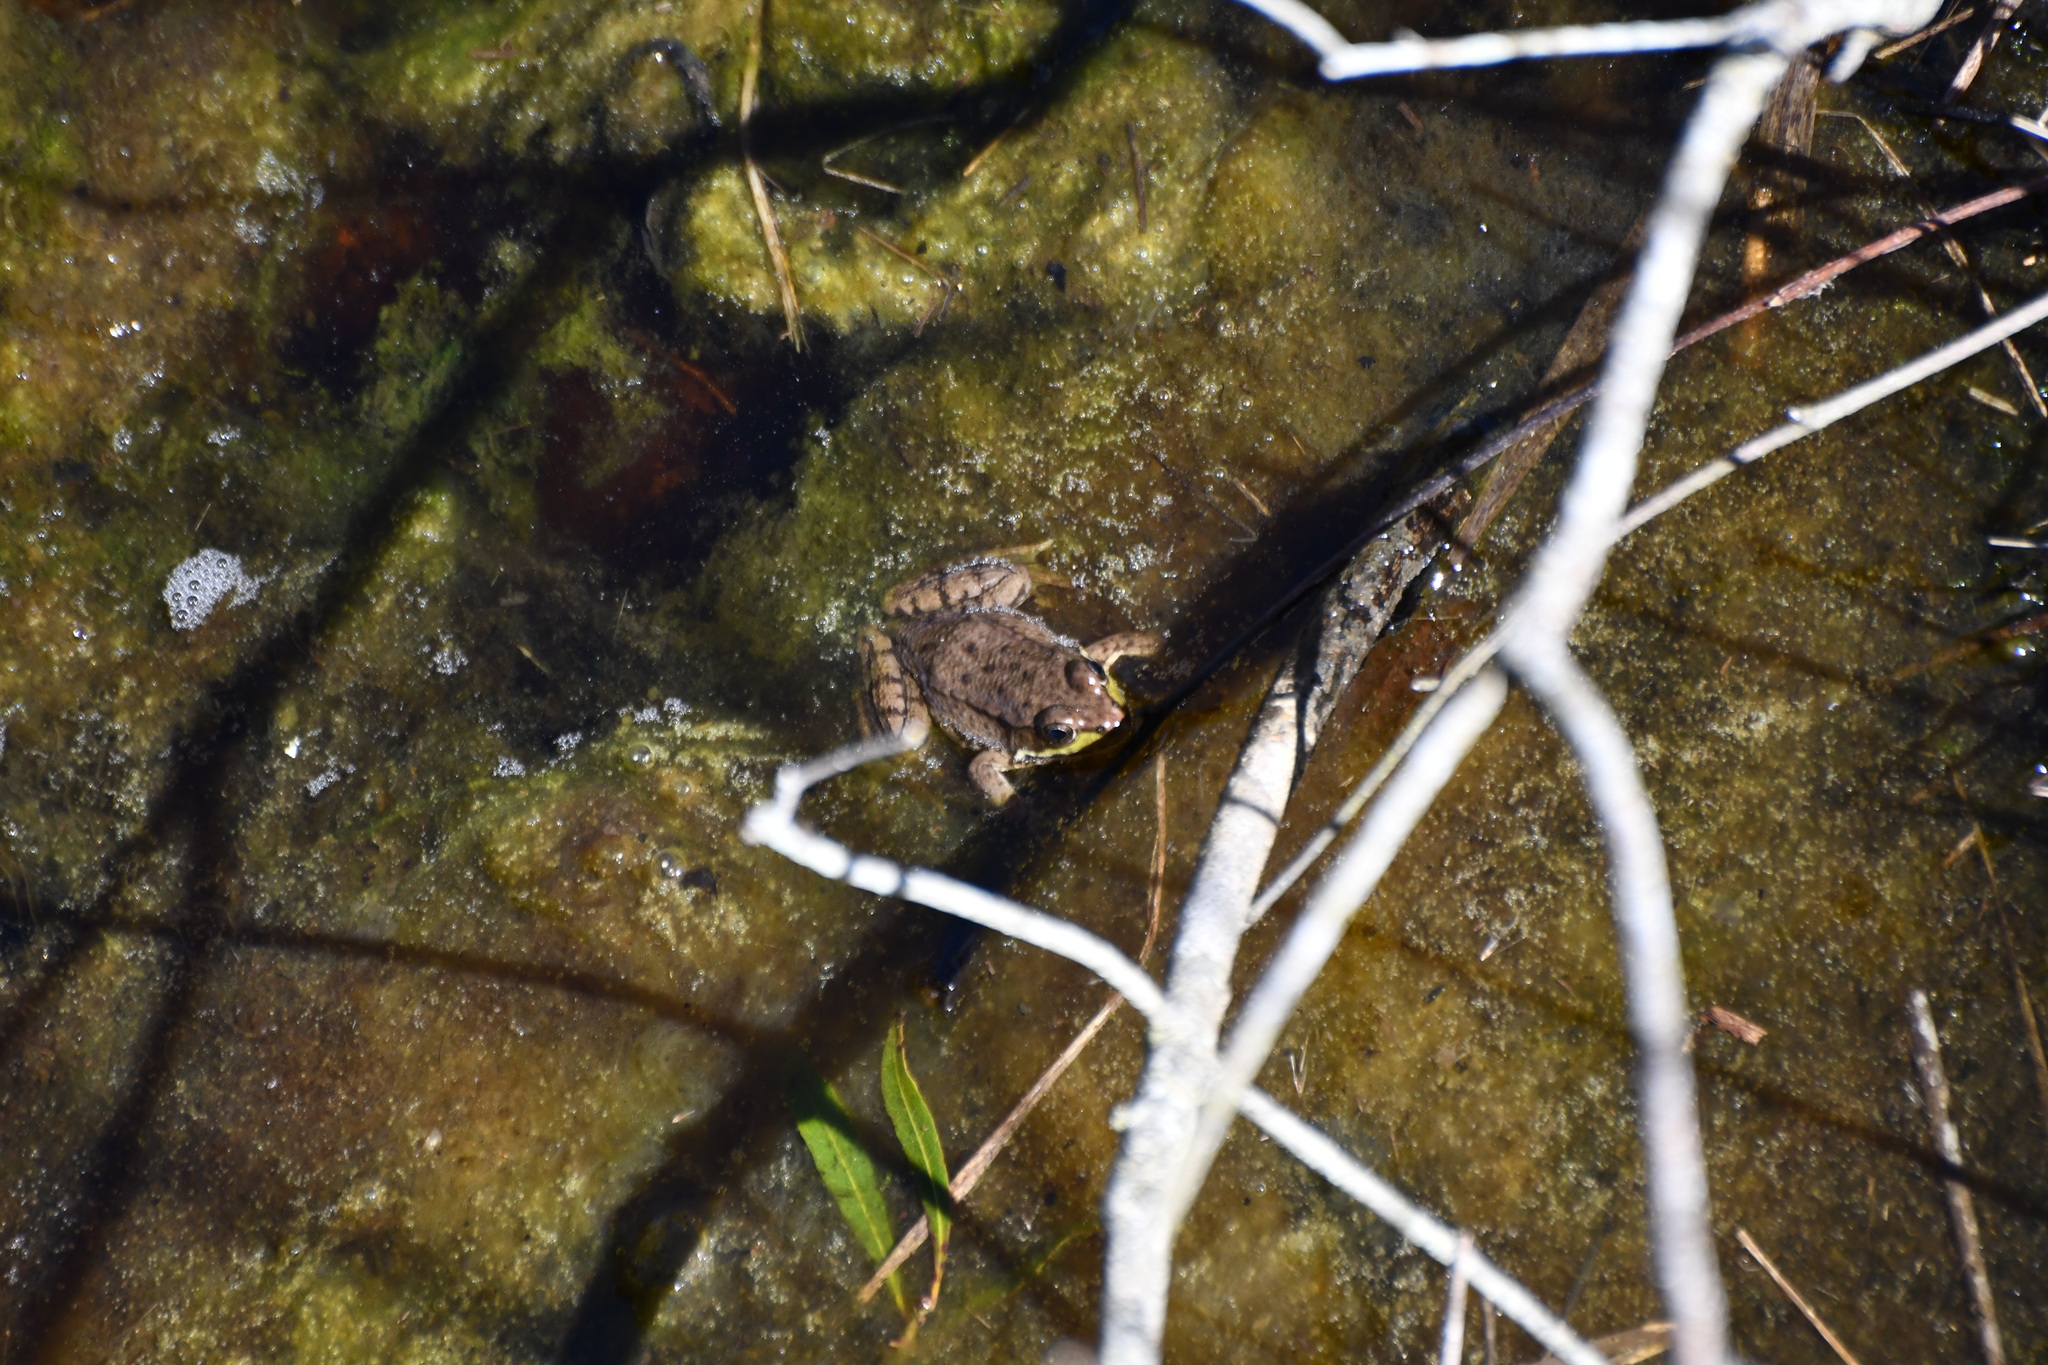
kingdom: Animalia
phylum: Chordata
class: Amphibia
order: Anura
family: Ranidae
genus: Lithobates
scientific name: Lithobates clamitans
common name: Green frog
